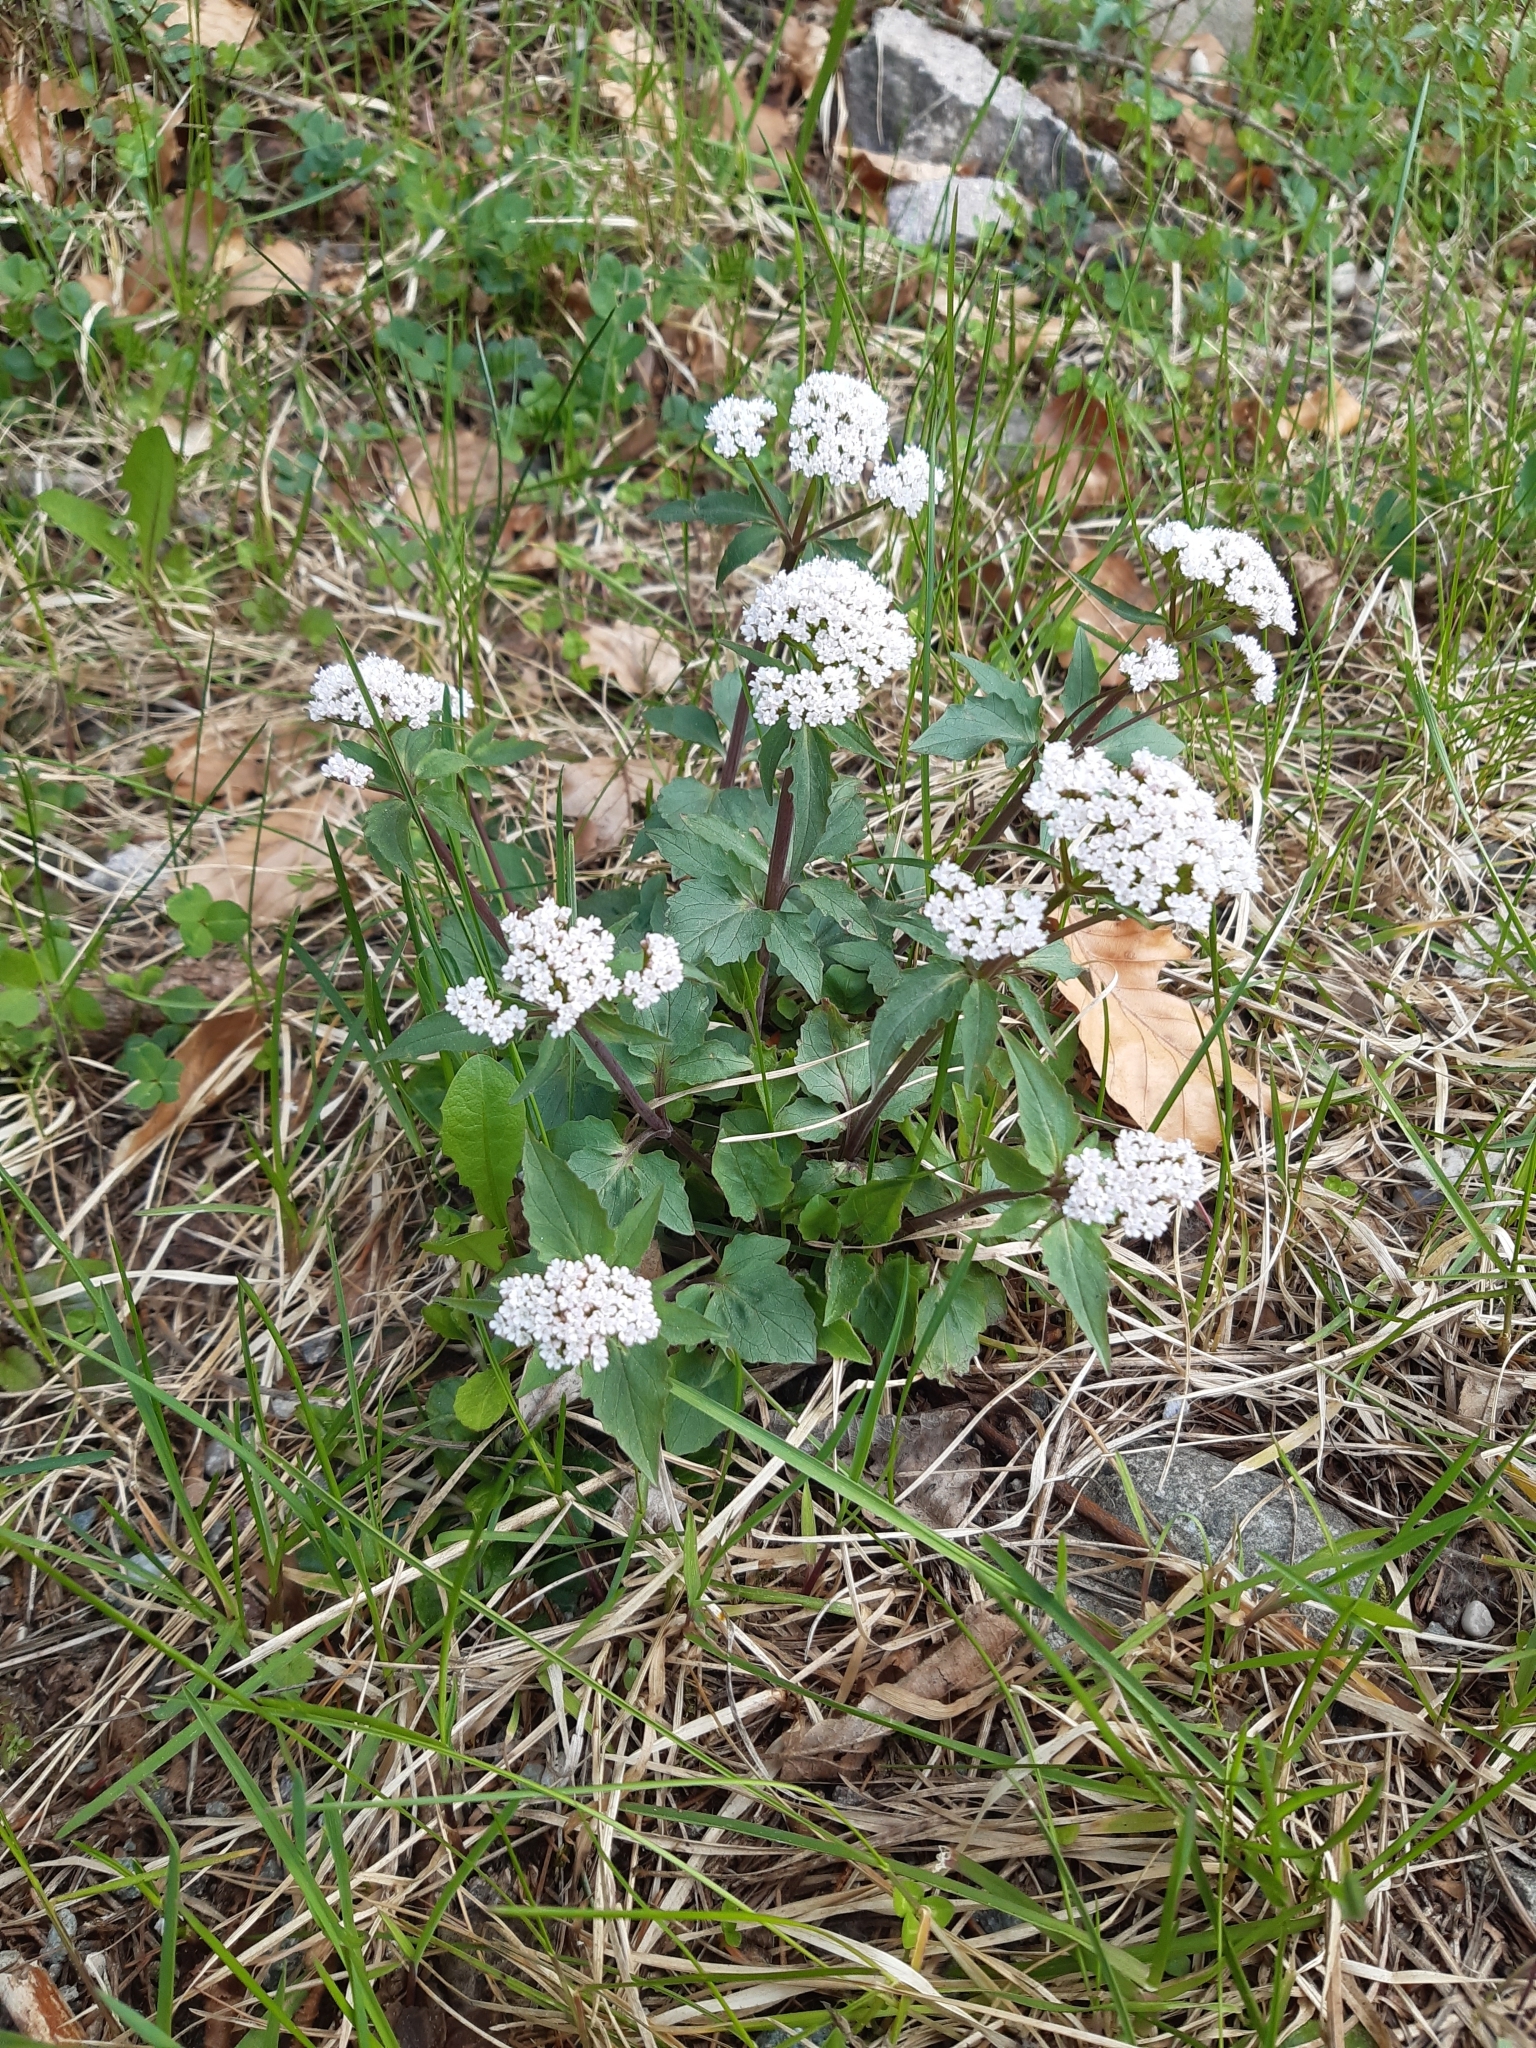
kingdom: Plantae
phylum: Tracheophyta
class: Magnoliopsida
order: Dipsacales
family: Caprifoliaceae
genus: Valeriana
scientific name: Valeriana tripteris
